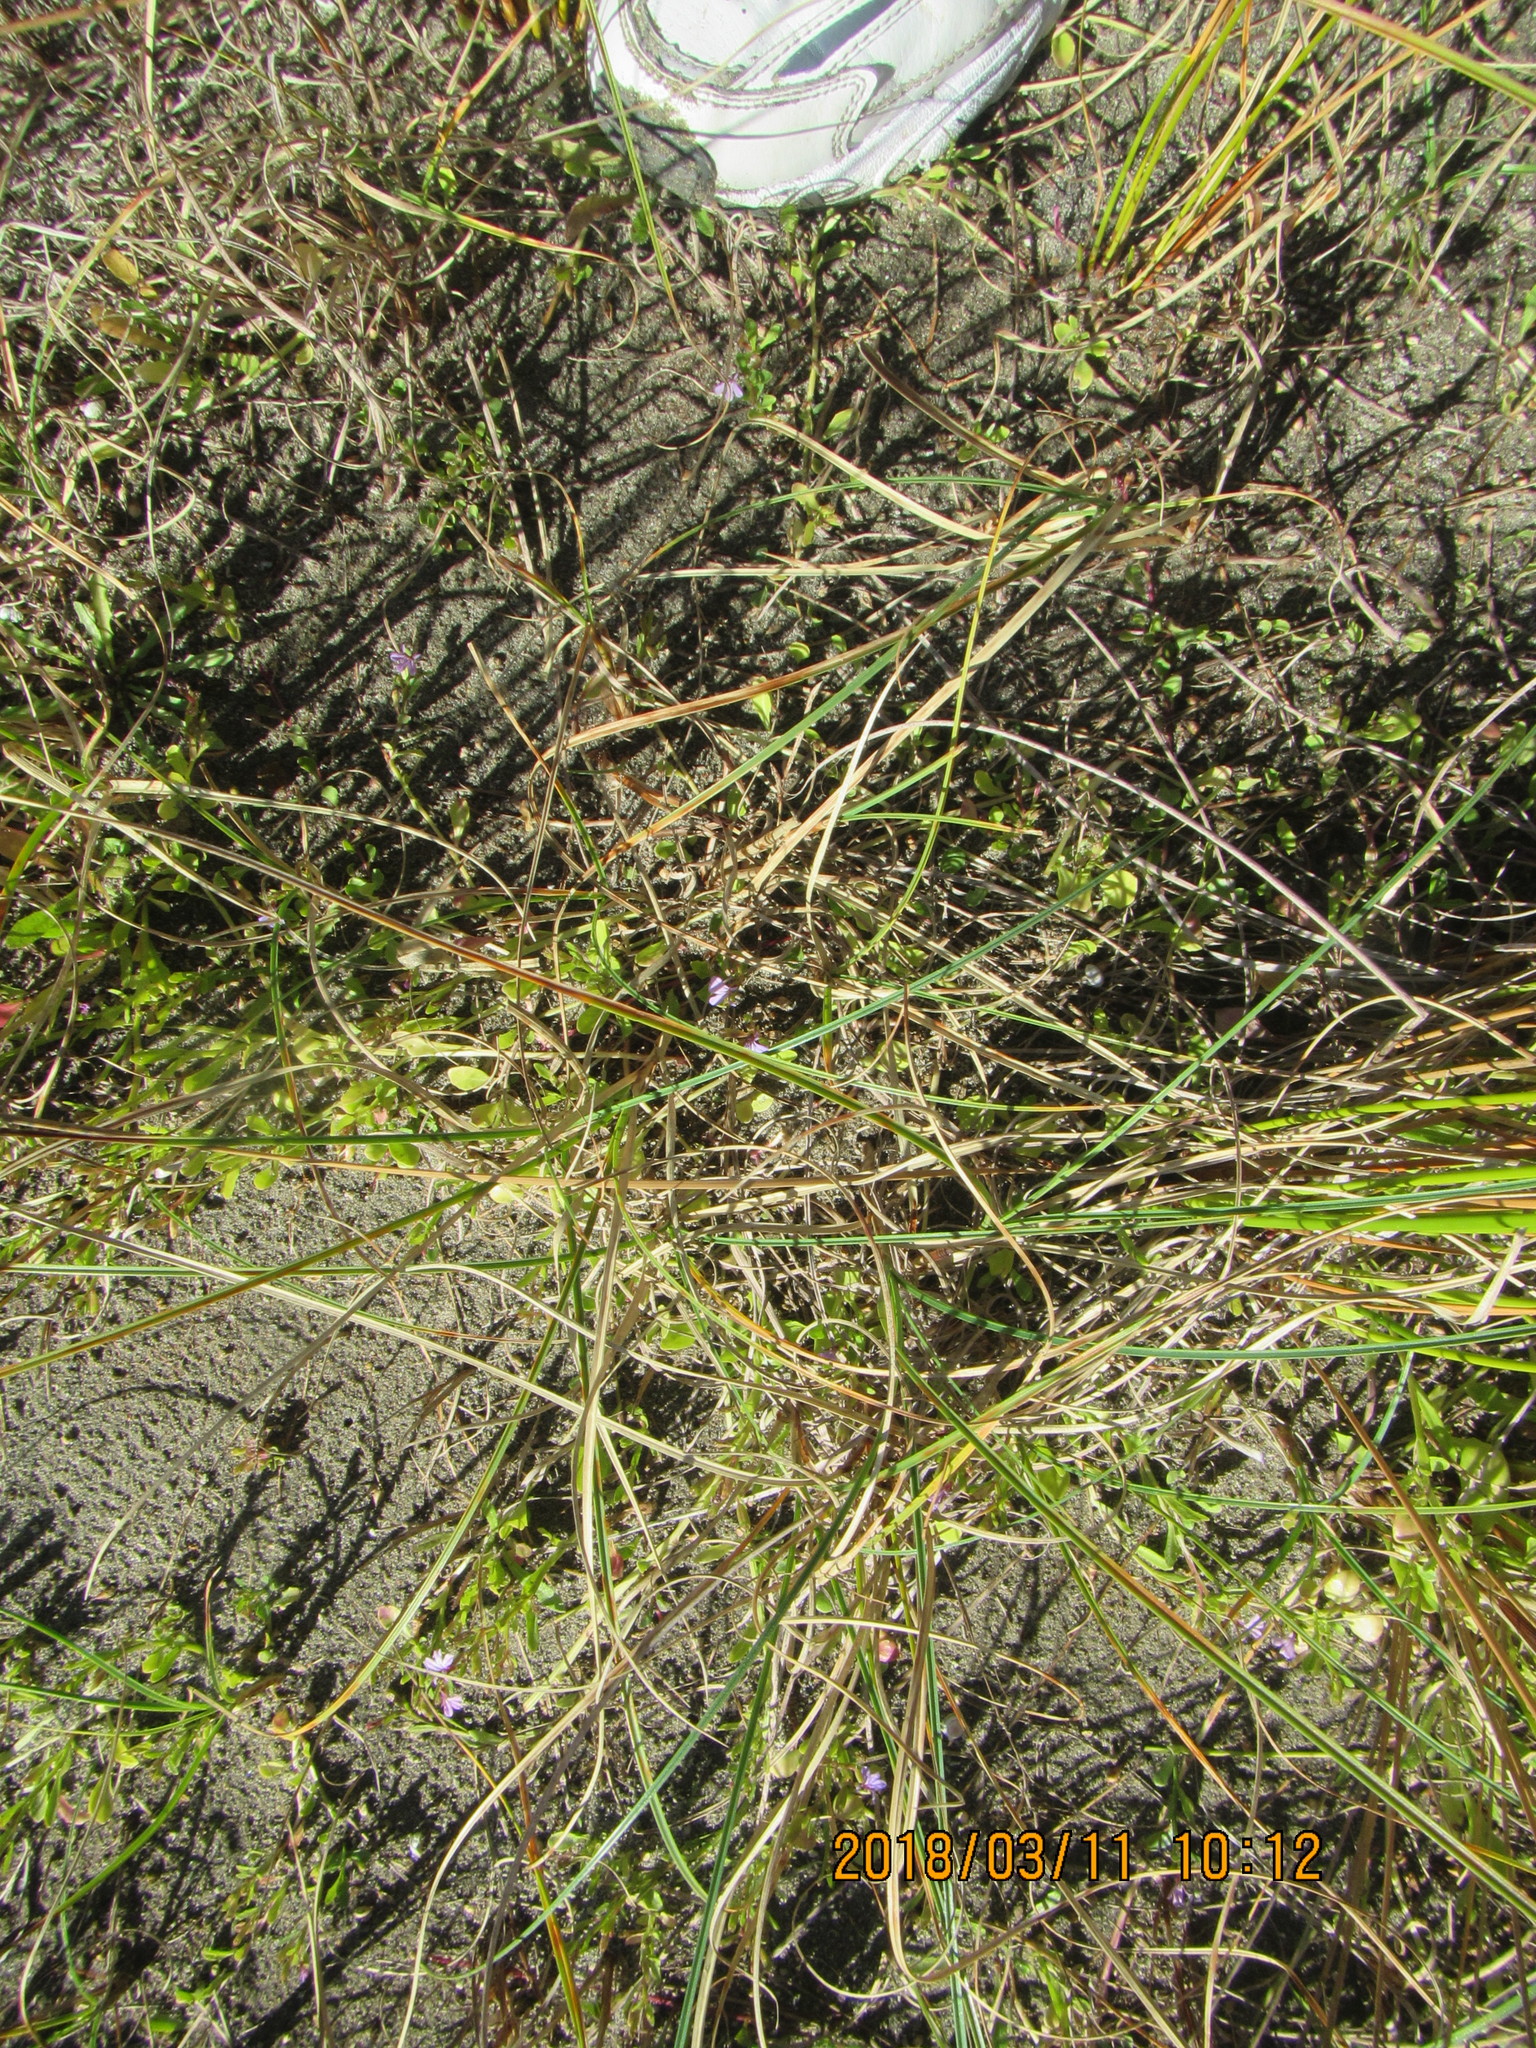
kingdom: Plantae
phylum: Tracheophyta
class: Magnoliopsida
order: Asterales
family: Campanulaceae
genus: Lobelia
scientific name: Lobelia anceps
